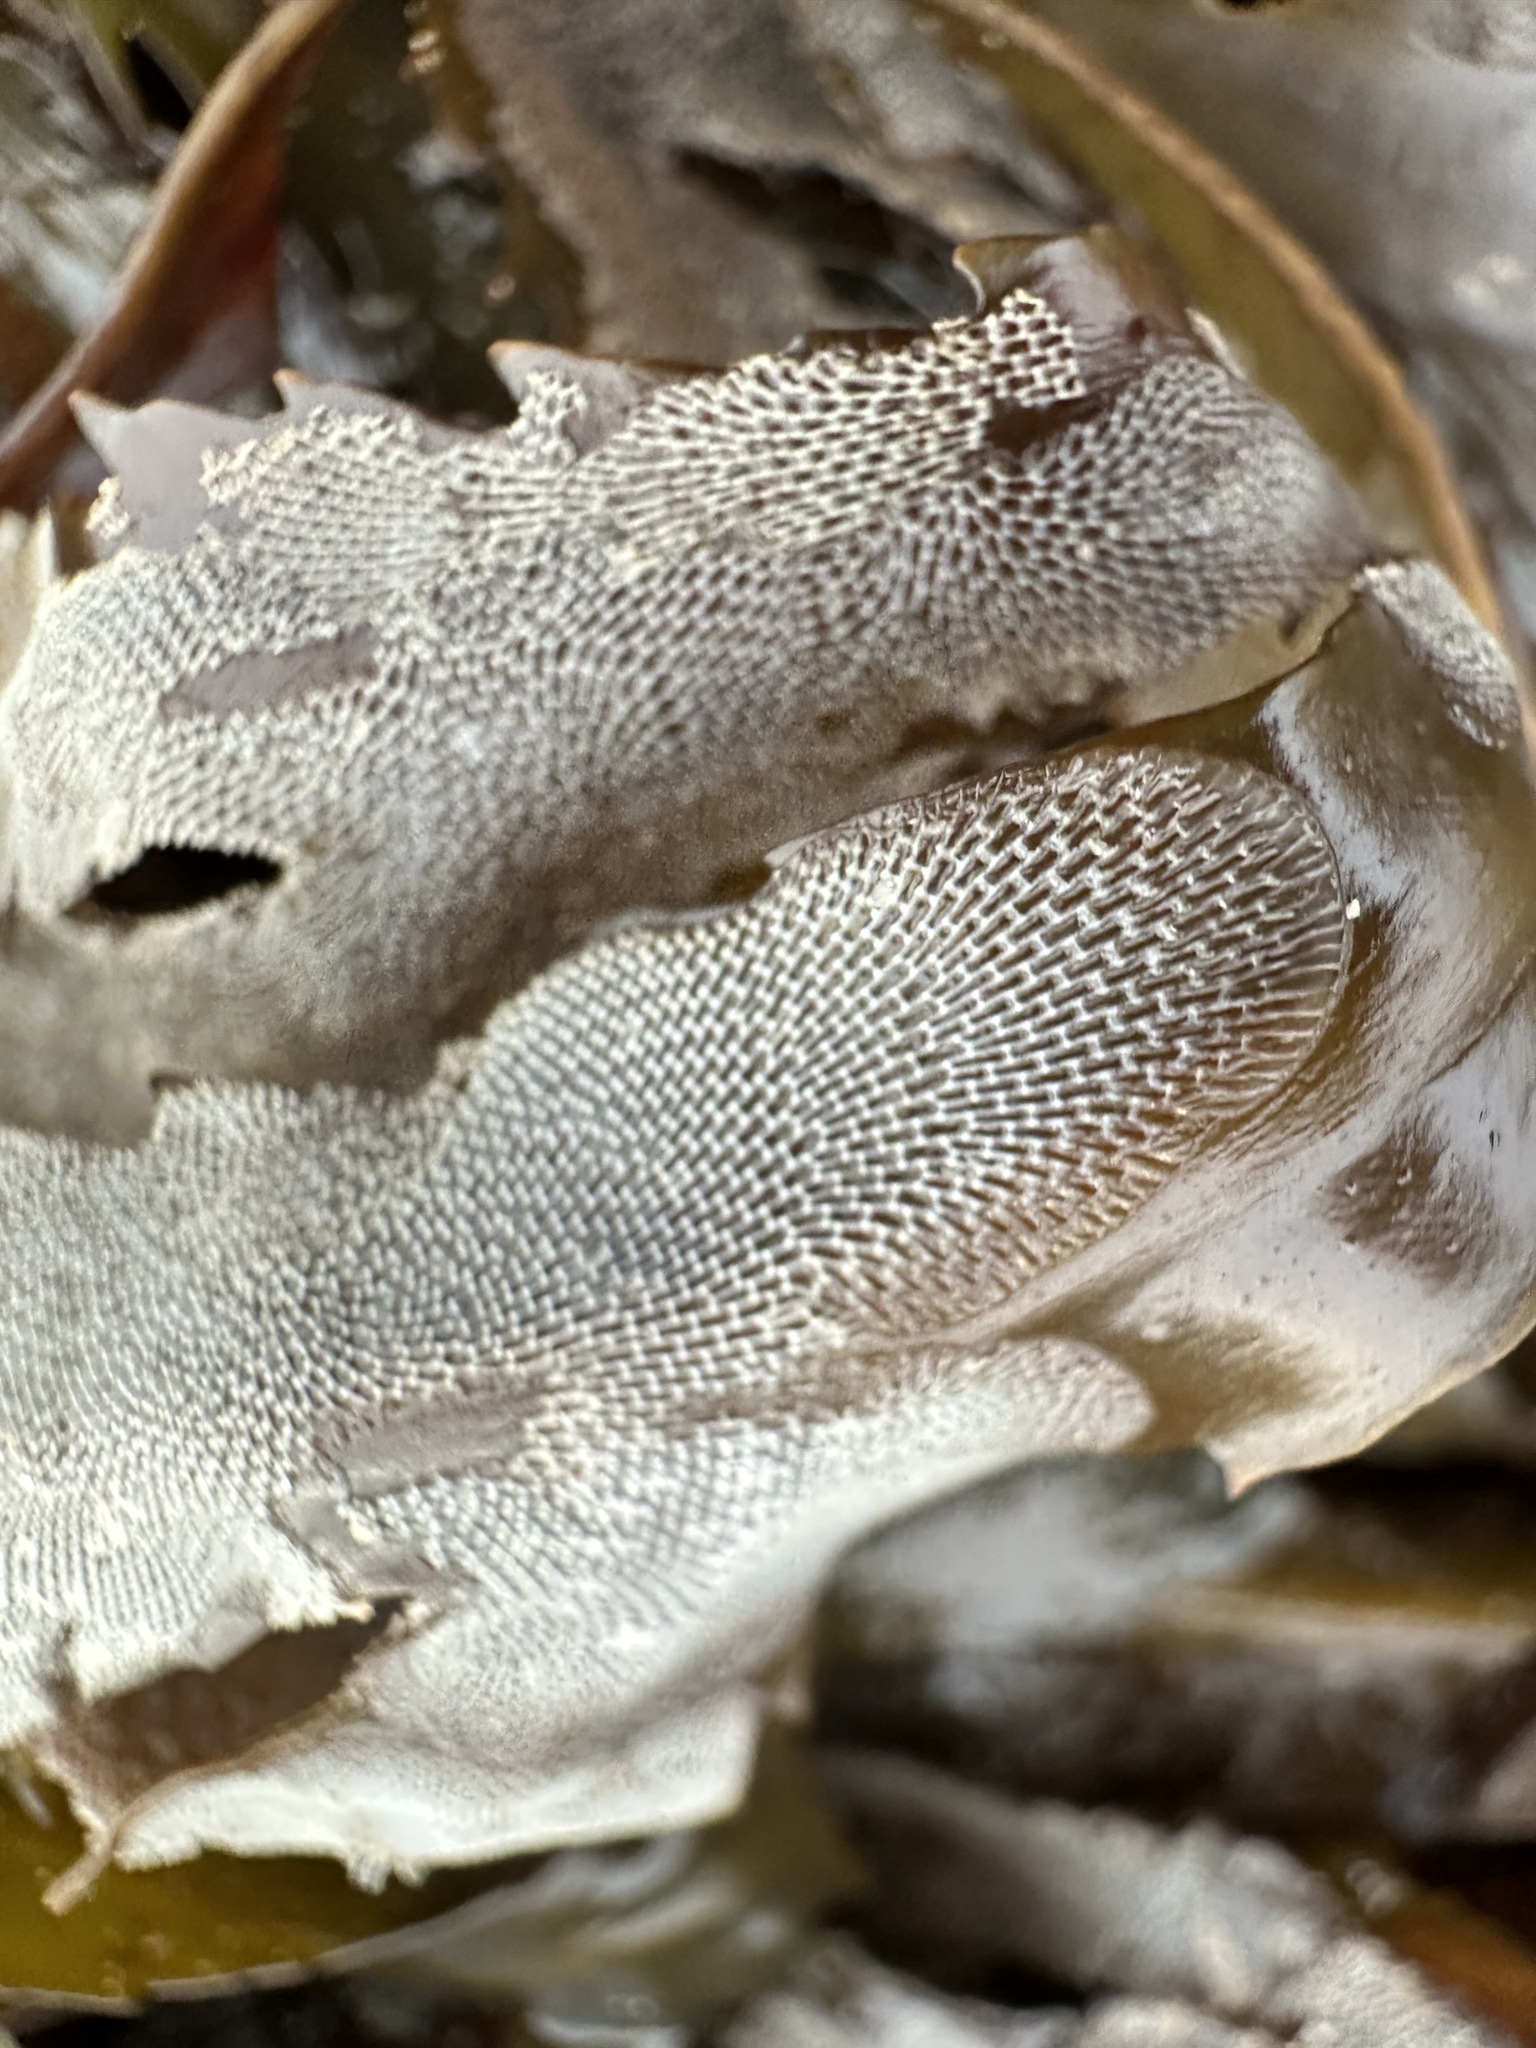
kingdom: Animalia
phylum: Bryozoa
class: Gymnolaemata
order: Cheilostomatida
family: Membraniporidae
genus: Membranipora
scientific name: Membranipora membranacea
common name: Sea mat
